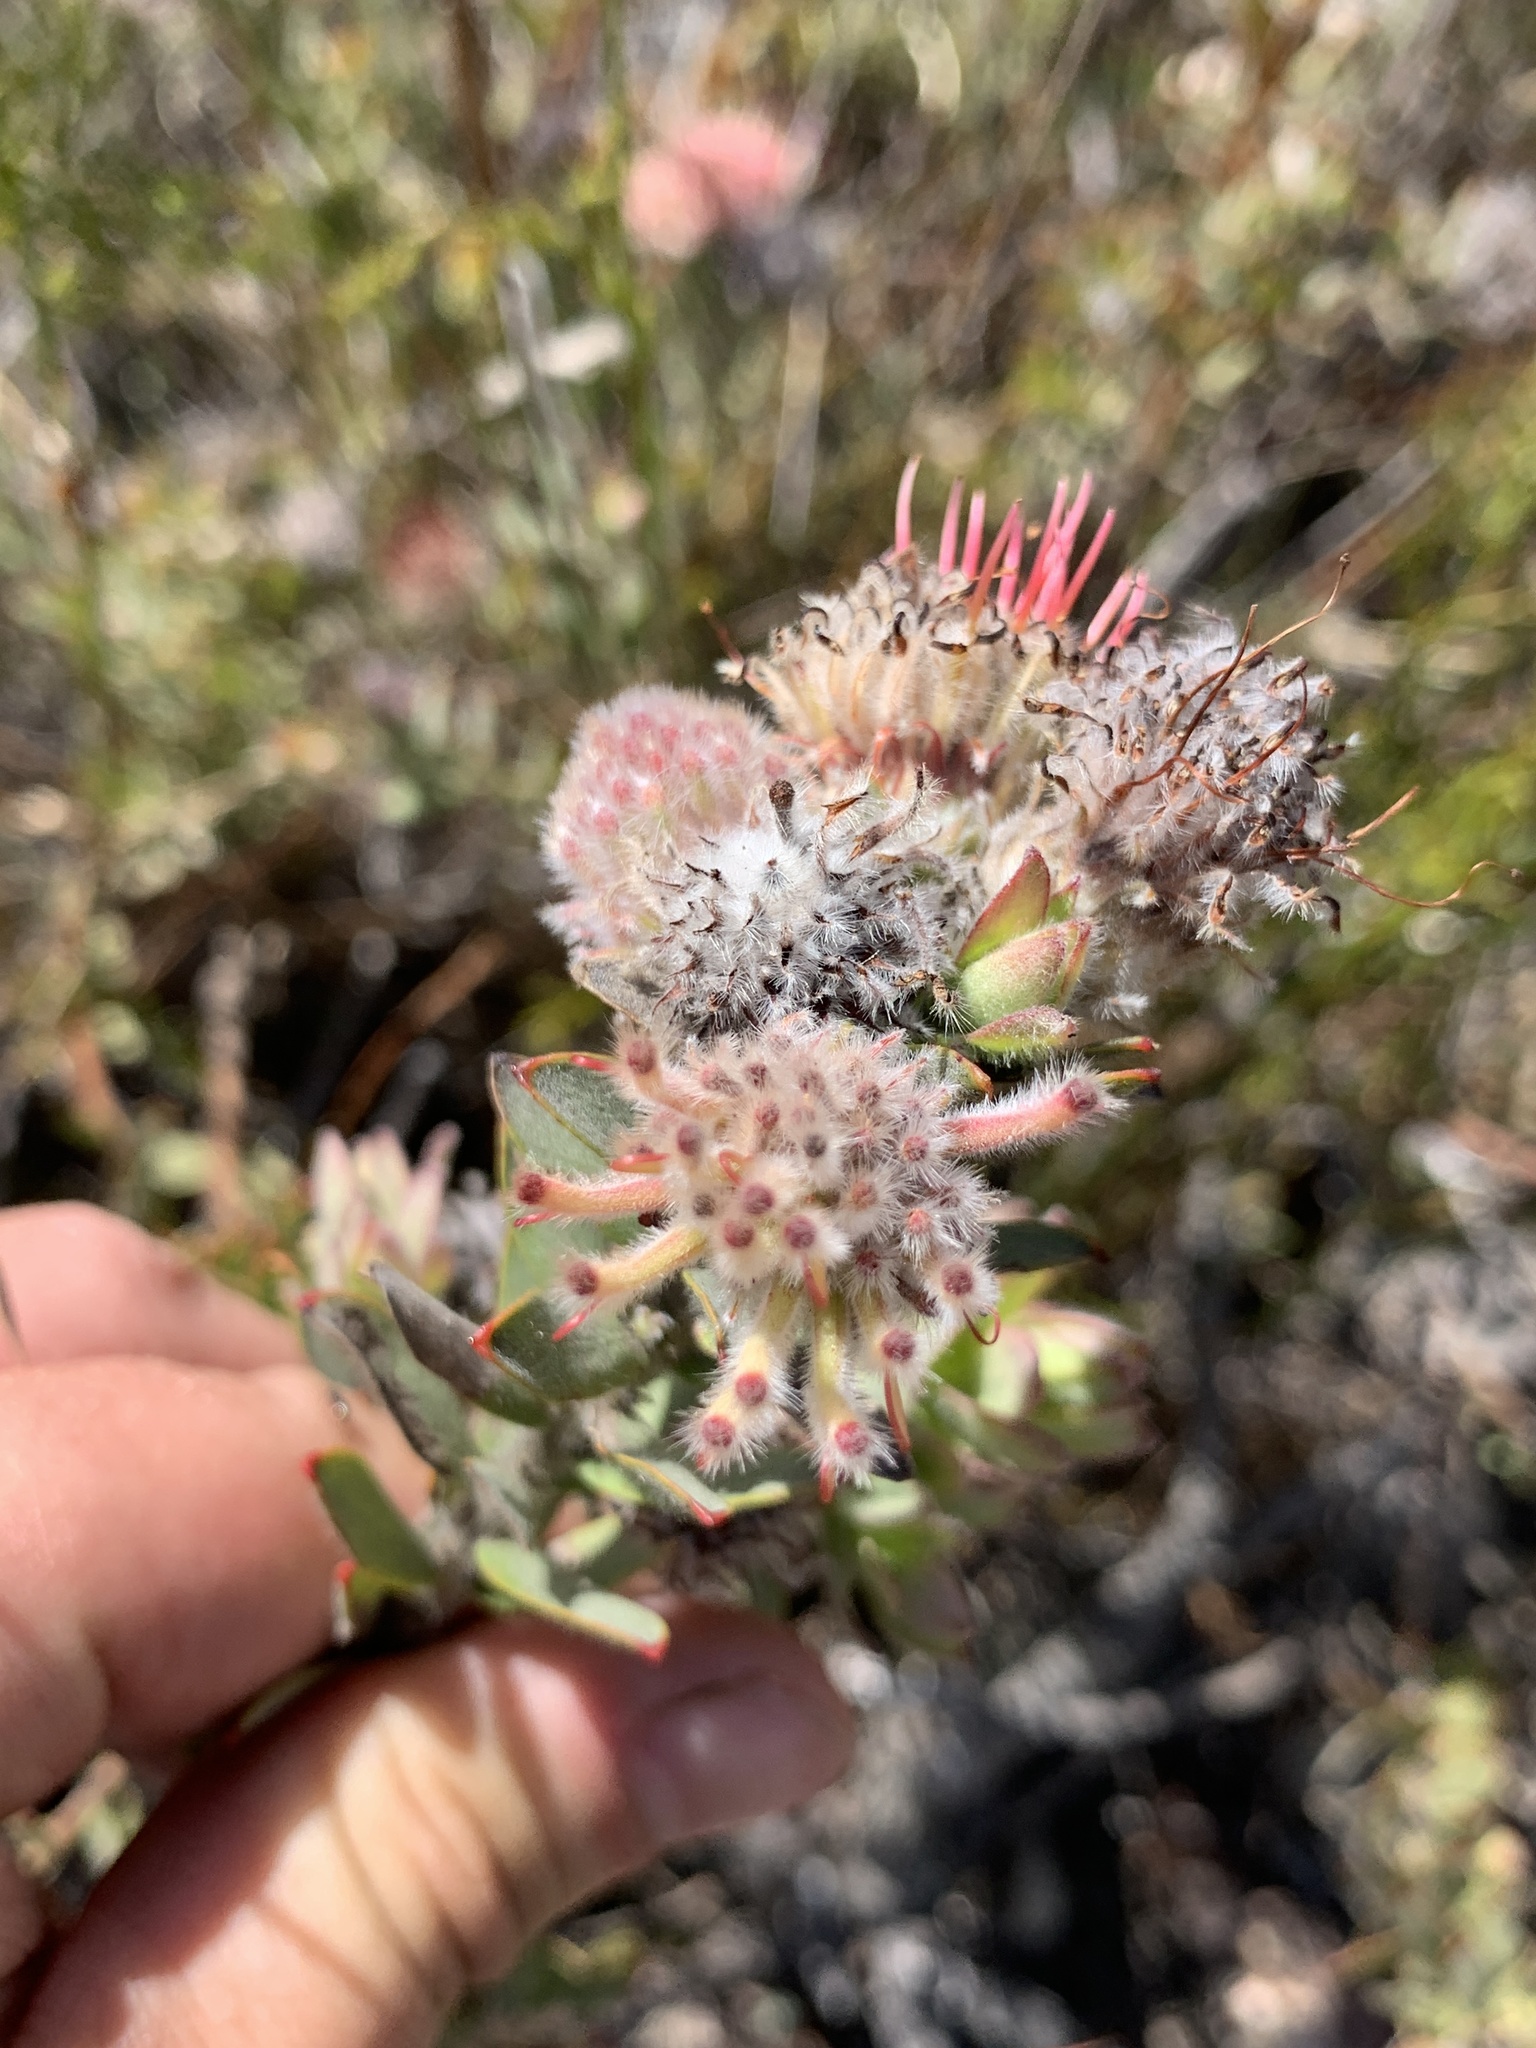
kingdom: Plantae
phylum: Tracheophyta
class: Magnoliopsida
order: Proteales
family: Proteaceae
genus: Leucospermum
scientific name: Leucospermum truncatulum
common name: Oval-leaf pincushion
